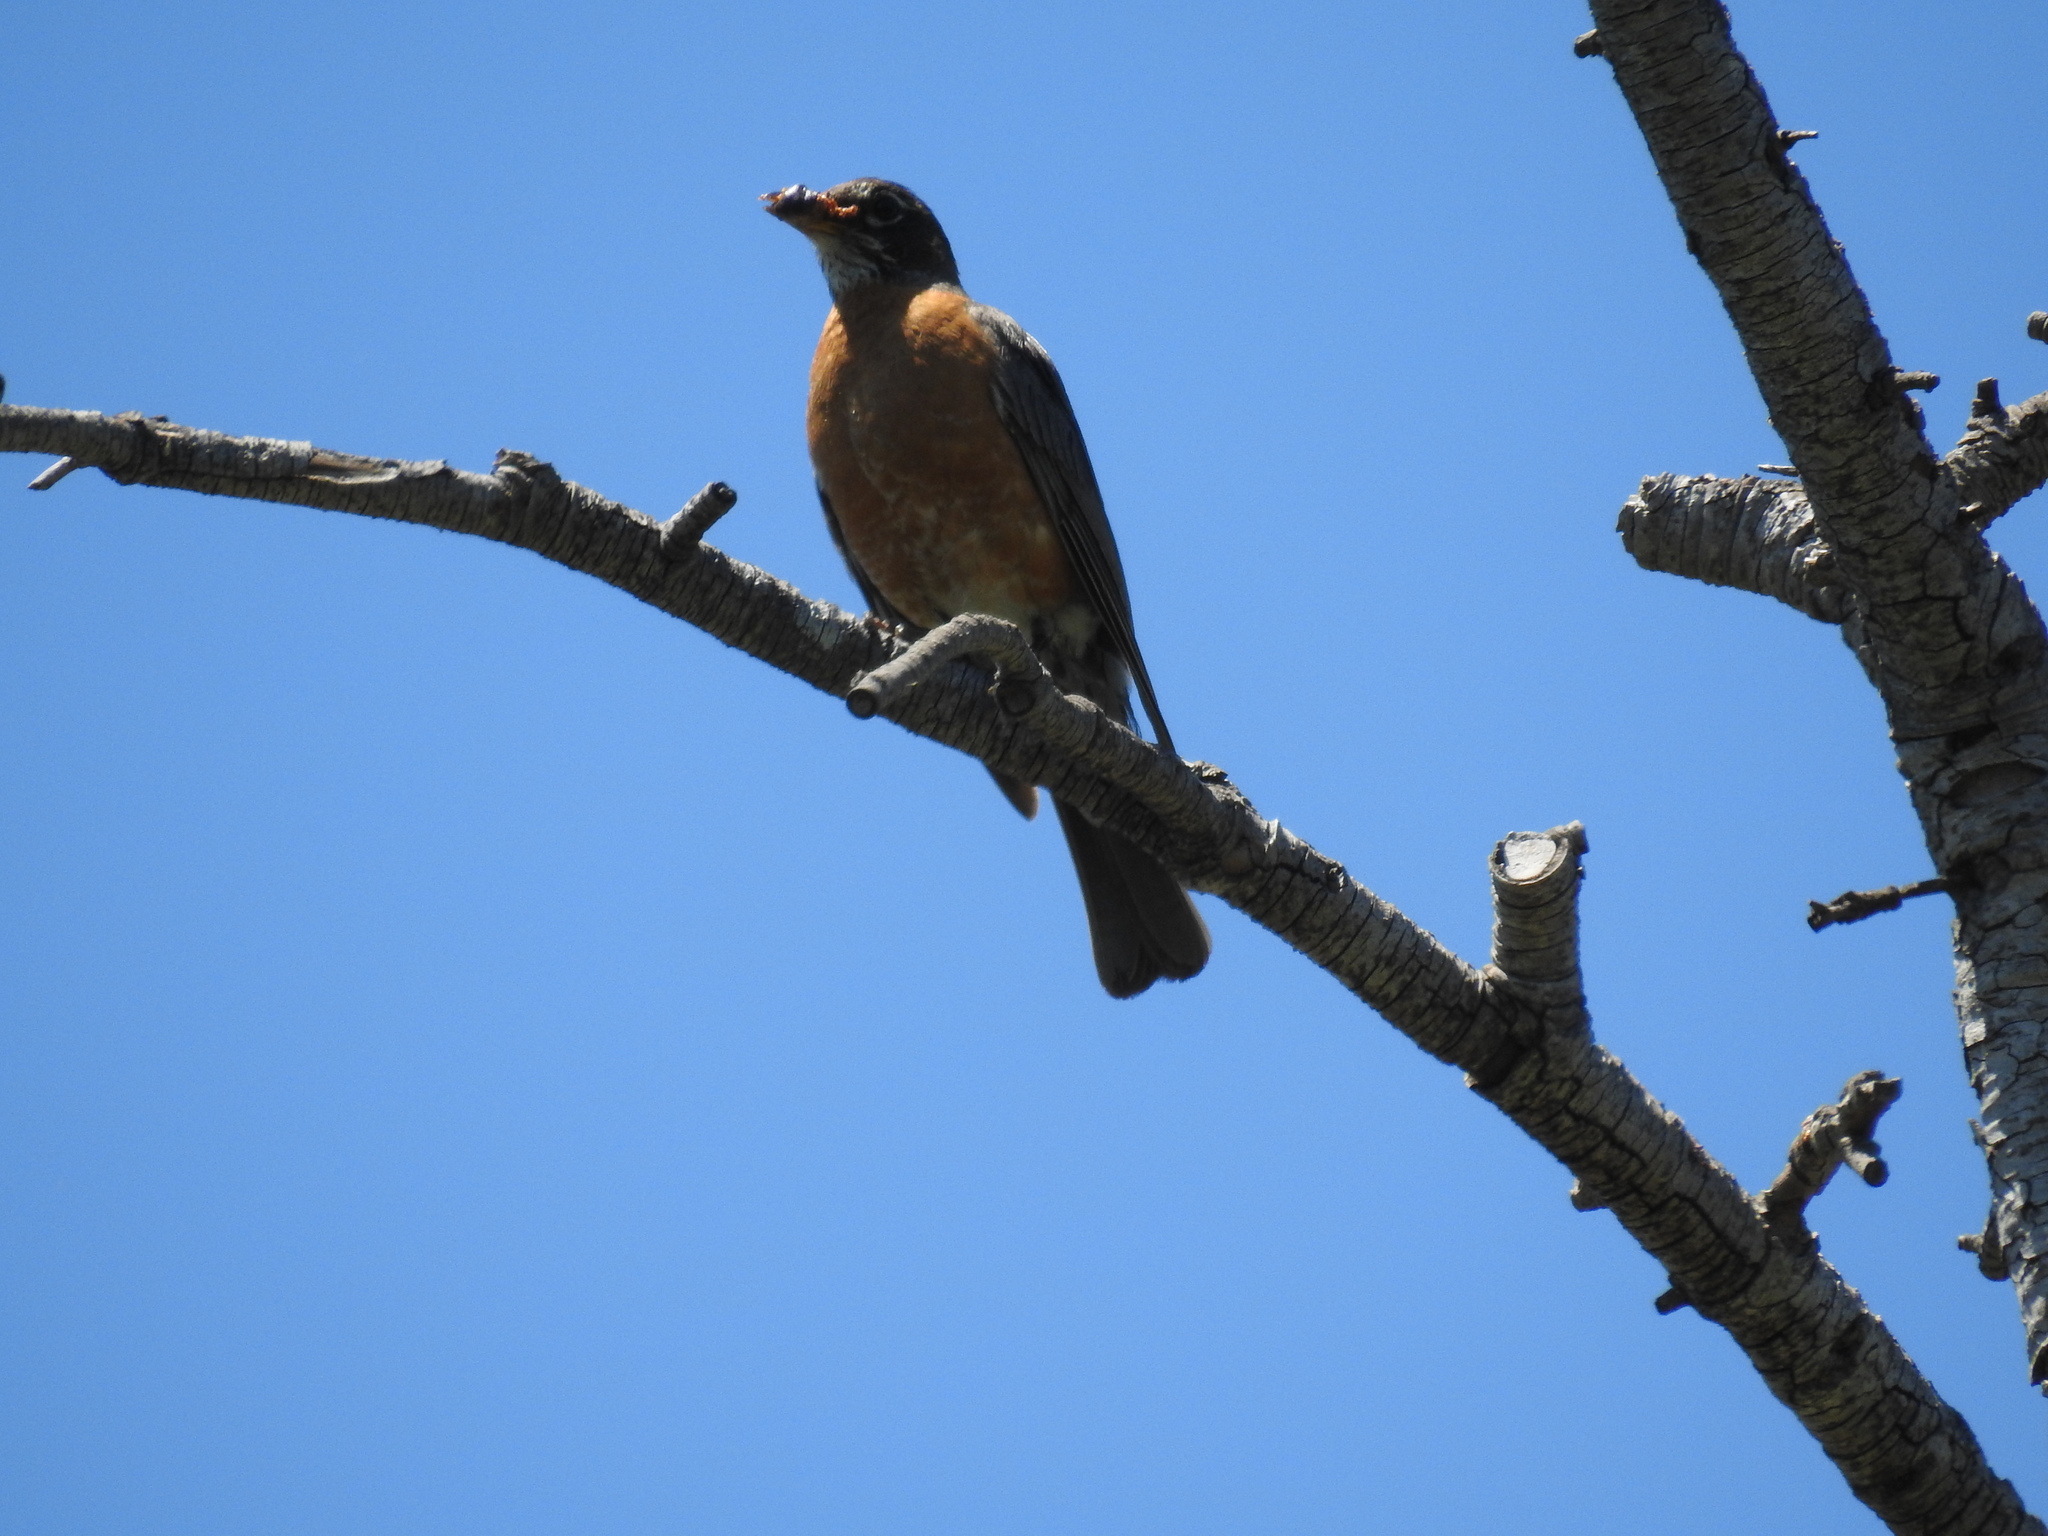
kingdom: Animalia
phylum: Chordata
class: Aves
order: Passeriformes
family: Turdidae
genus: Turdus
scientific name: Turdus migratorius
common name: American robin
